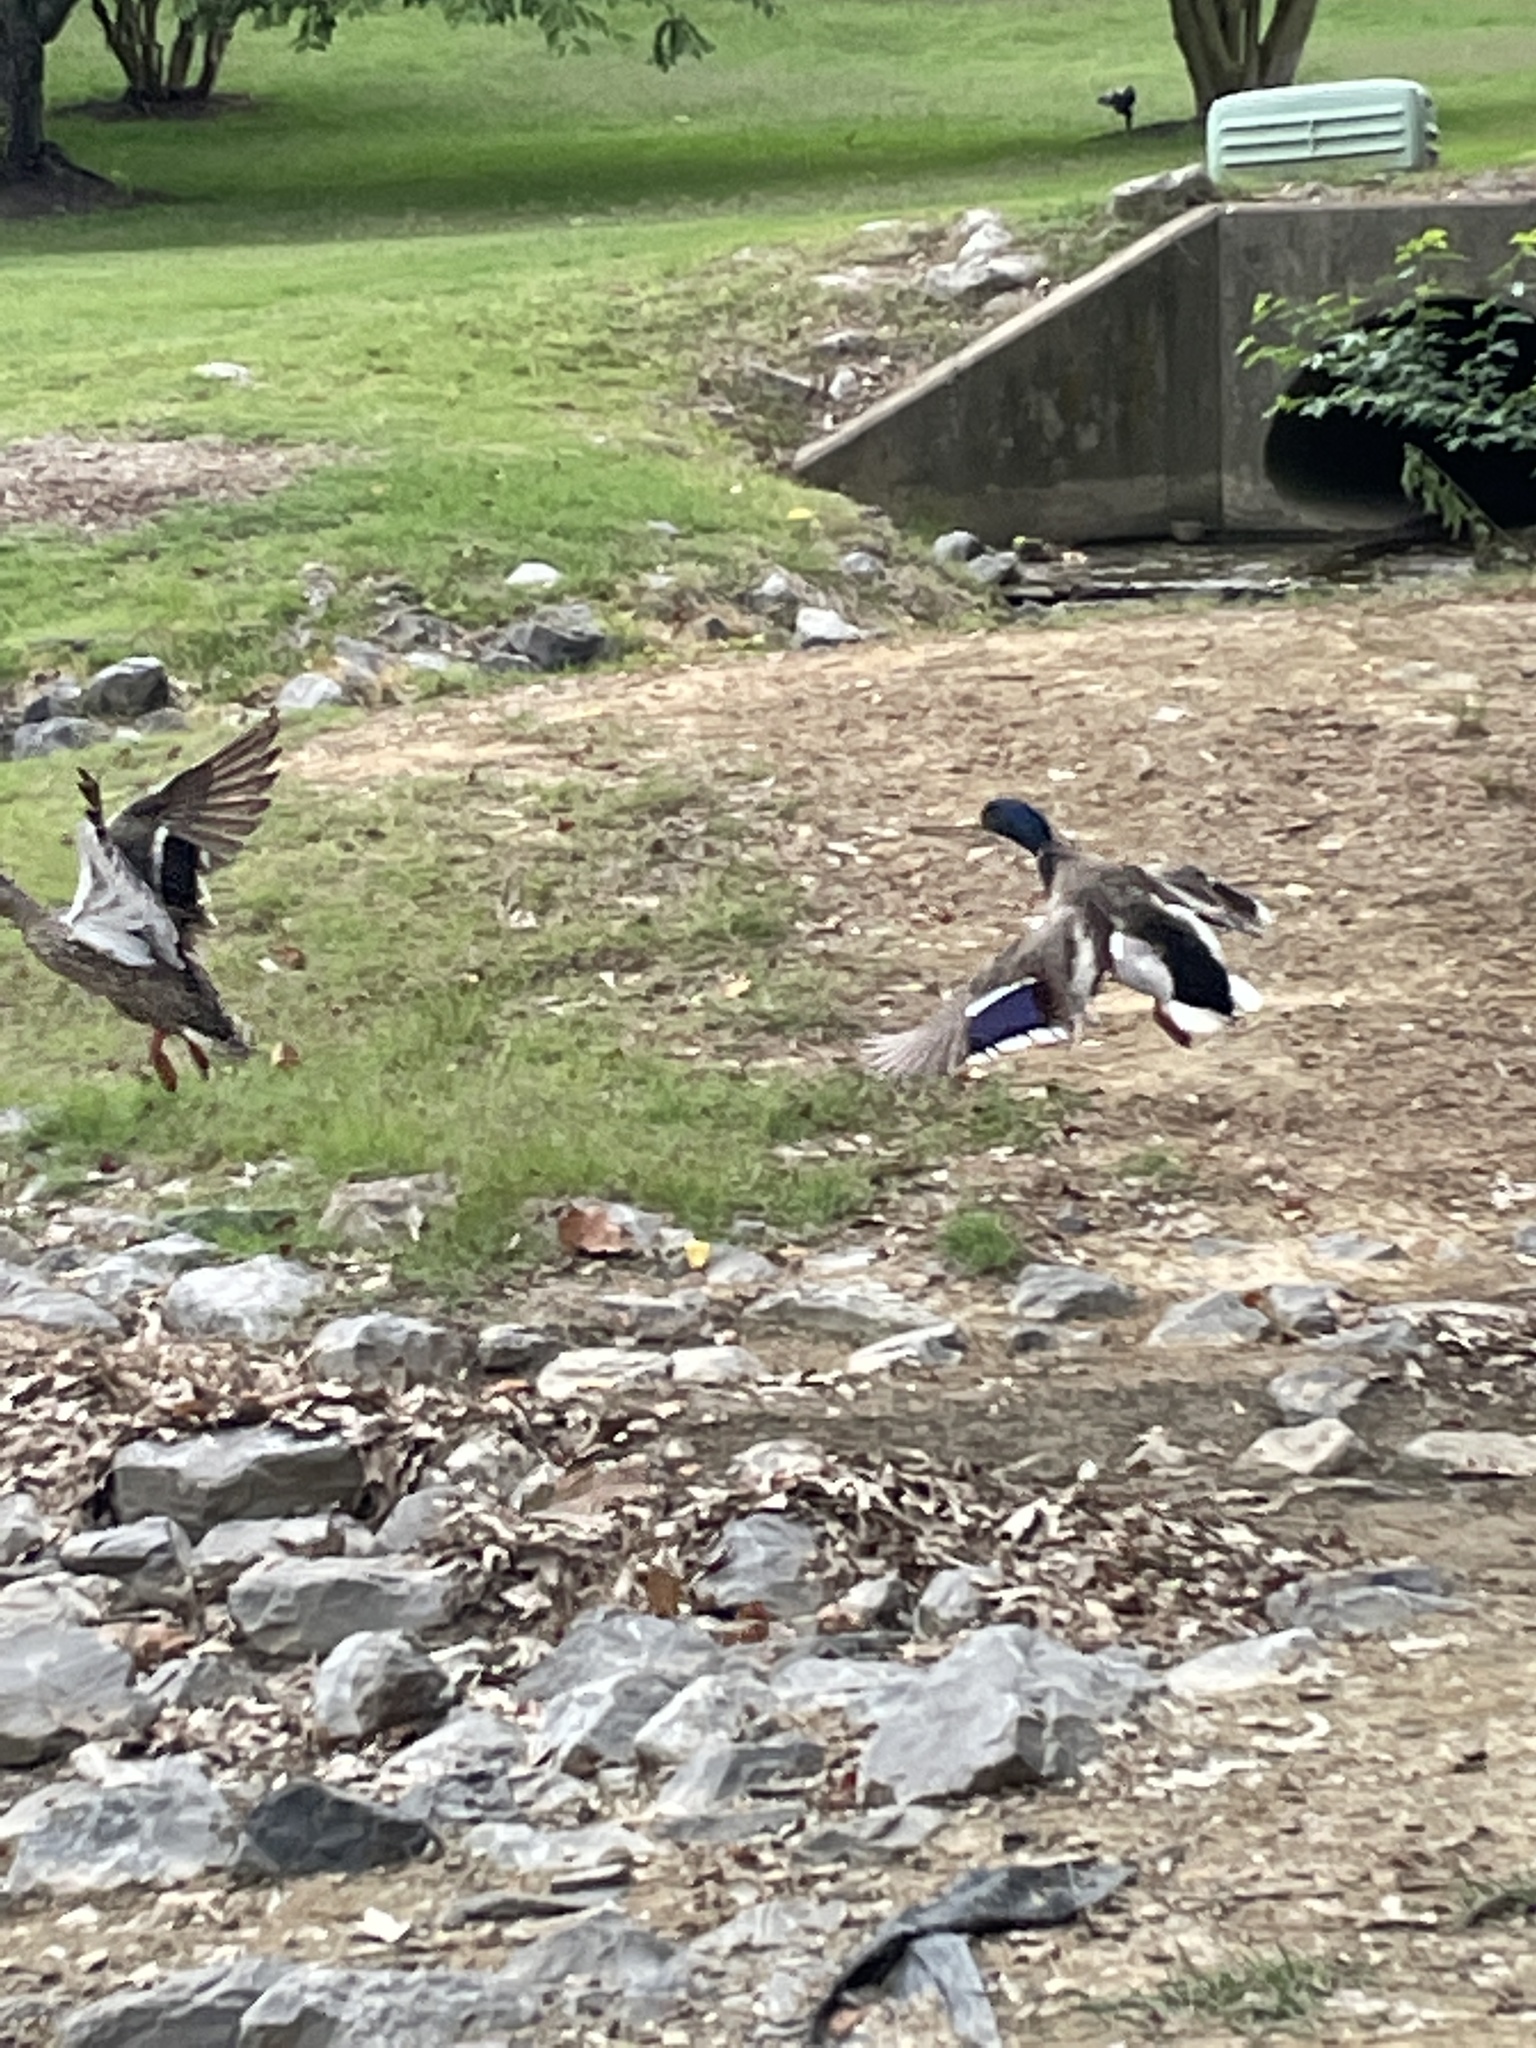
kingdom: Animalia
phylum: Chordata
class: Aves
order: Anseriformes
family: Anatidae
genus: Anas
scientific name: Anas platyrhynchos
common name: Mallard
